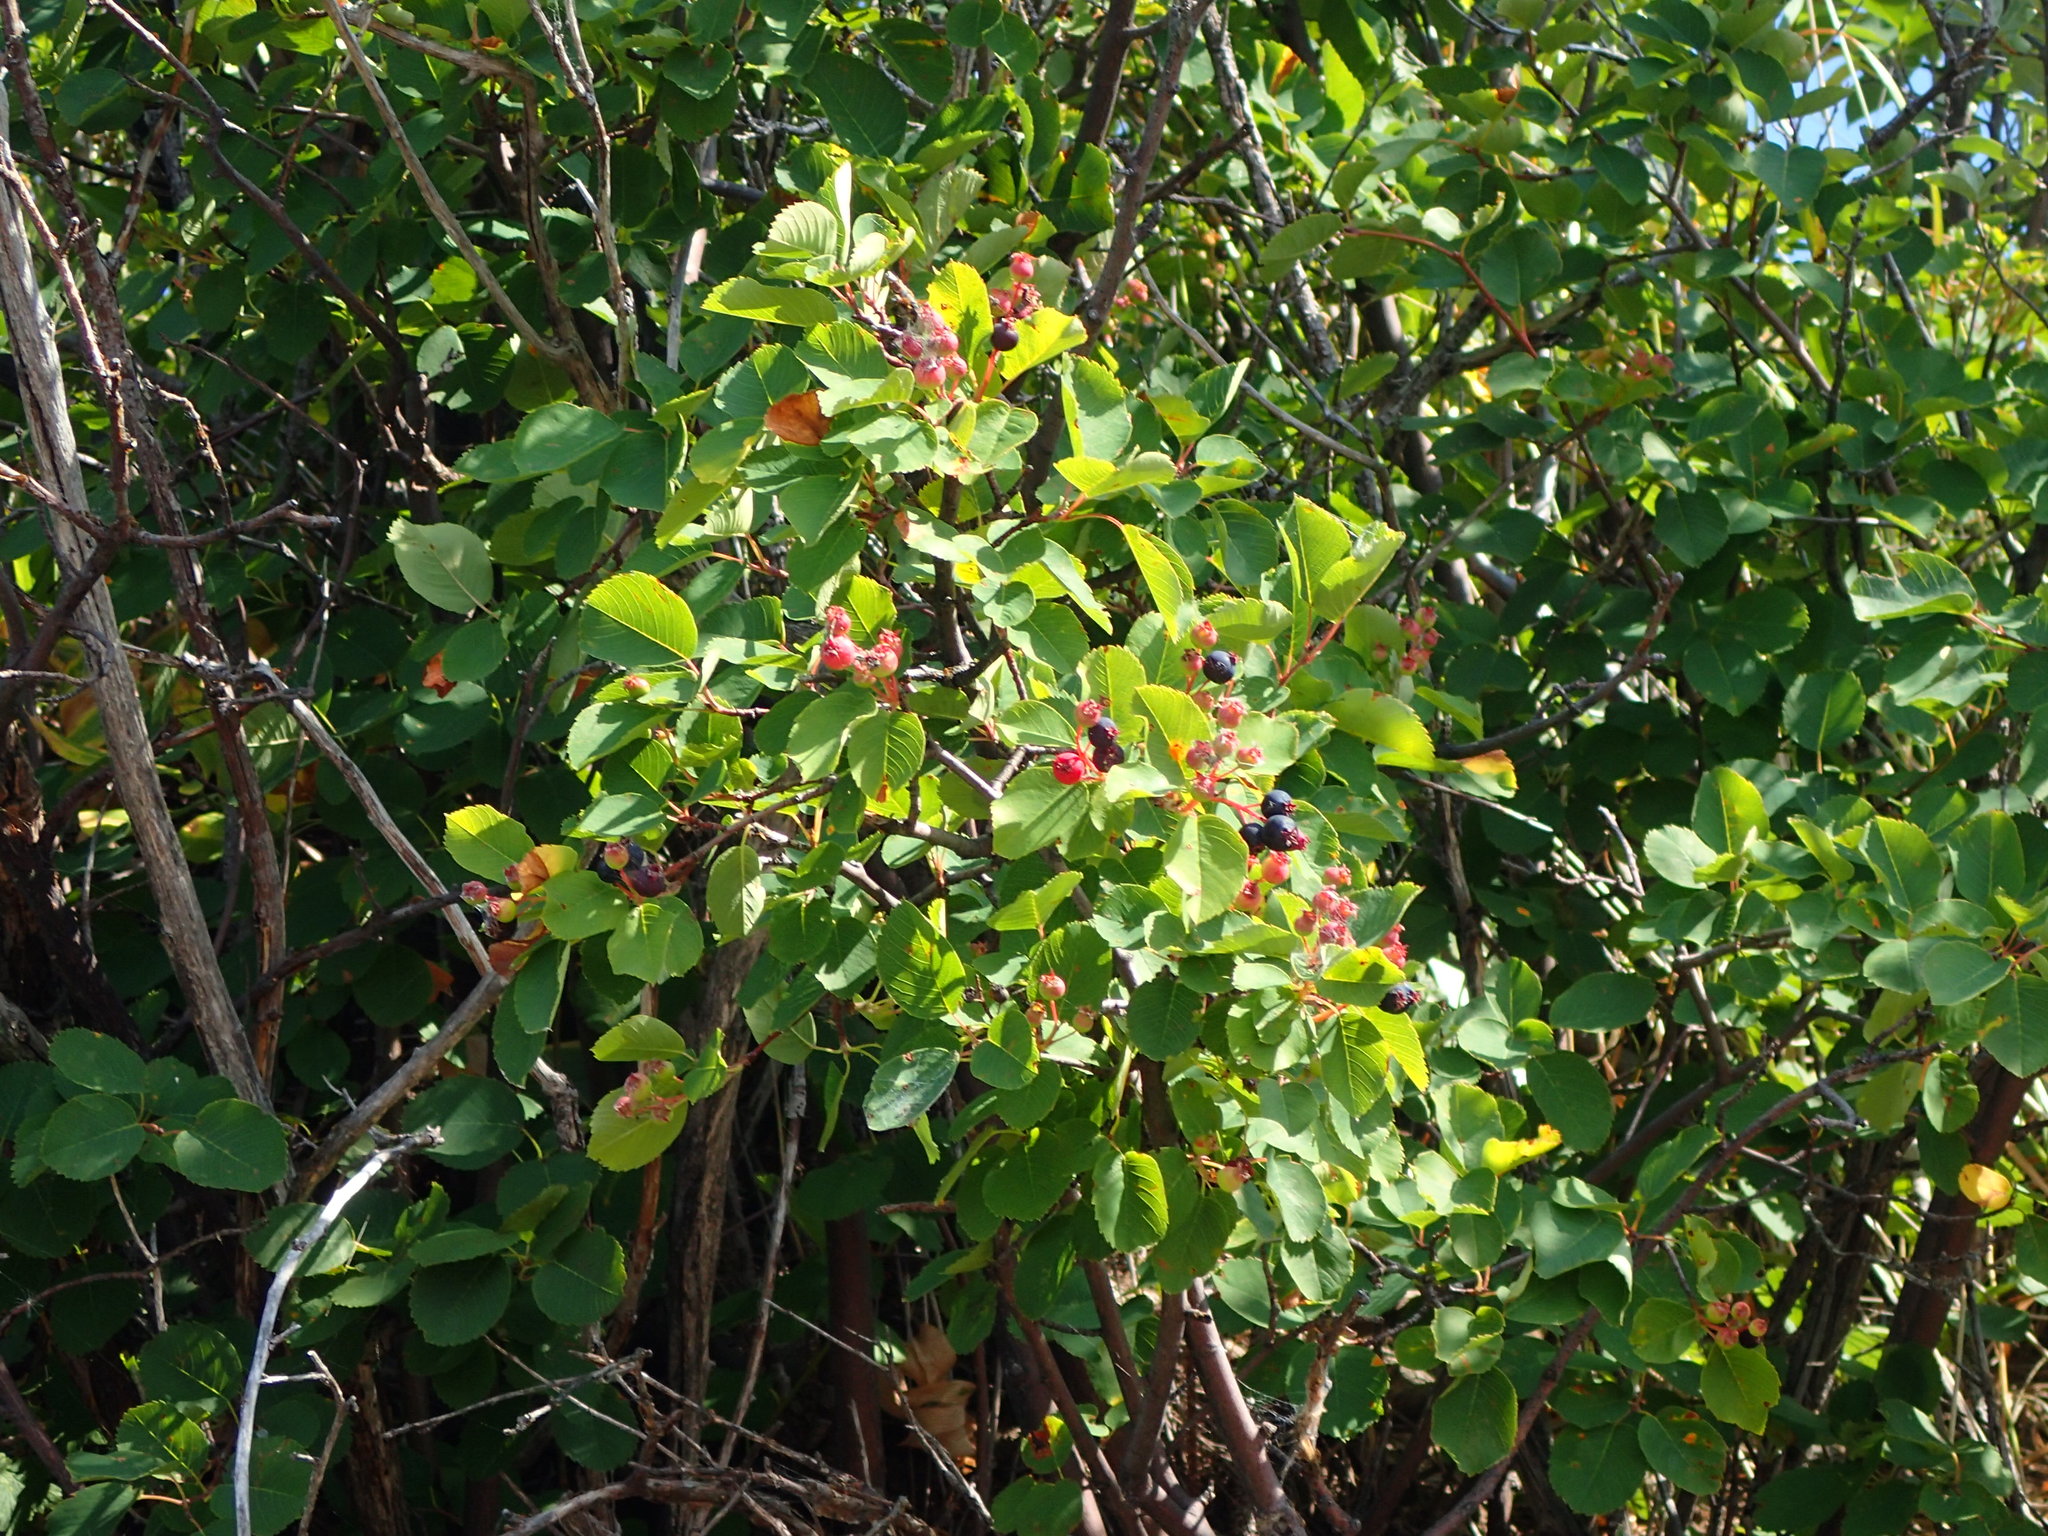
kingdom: Plantae
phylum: Tracheophyta
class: Magnoliopsida
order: Rosales
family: Rosaceae
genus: Amelanchier
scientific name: Amelanchier alnifolia
